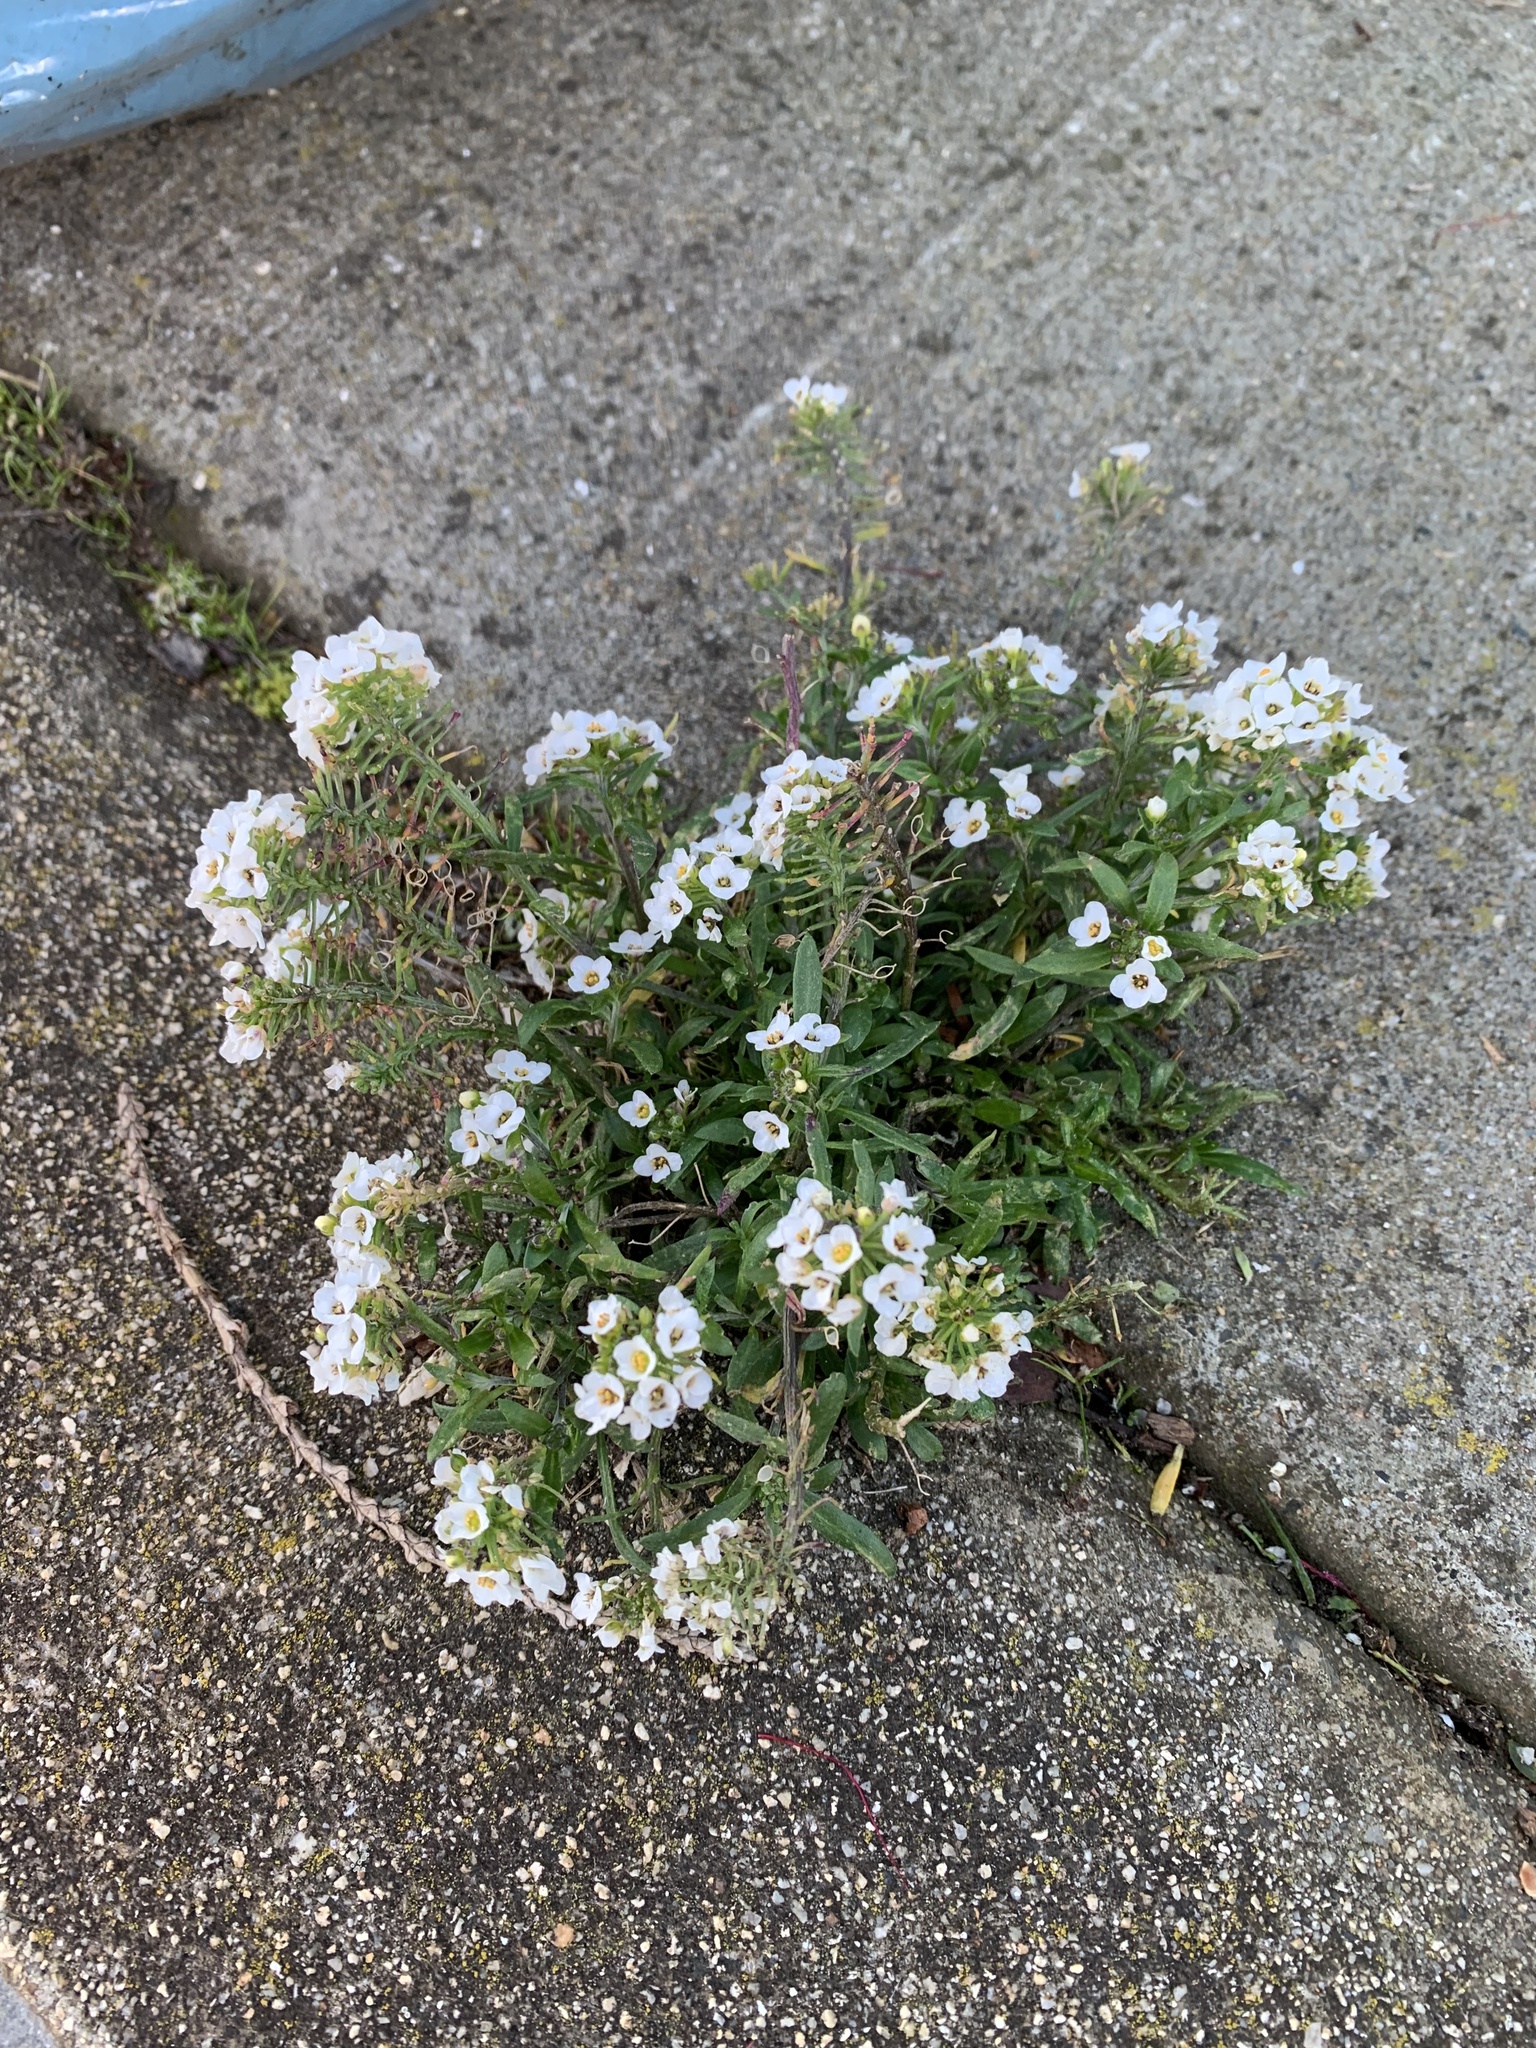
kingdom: Plantae
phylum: Tracheophyta
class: Magnoliopsida
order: Brassicales
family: Brassicaceae
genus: Lobularia
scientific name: Lobularia maritima
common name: Sweet alison
